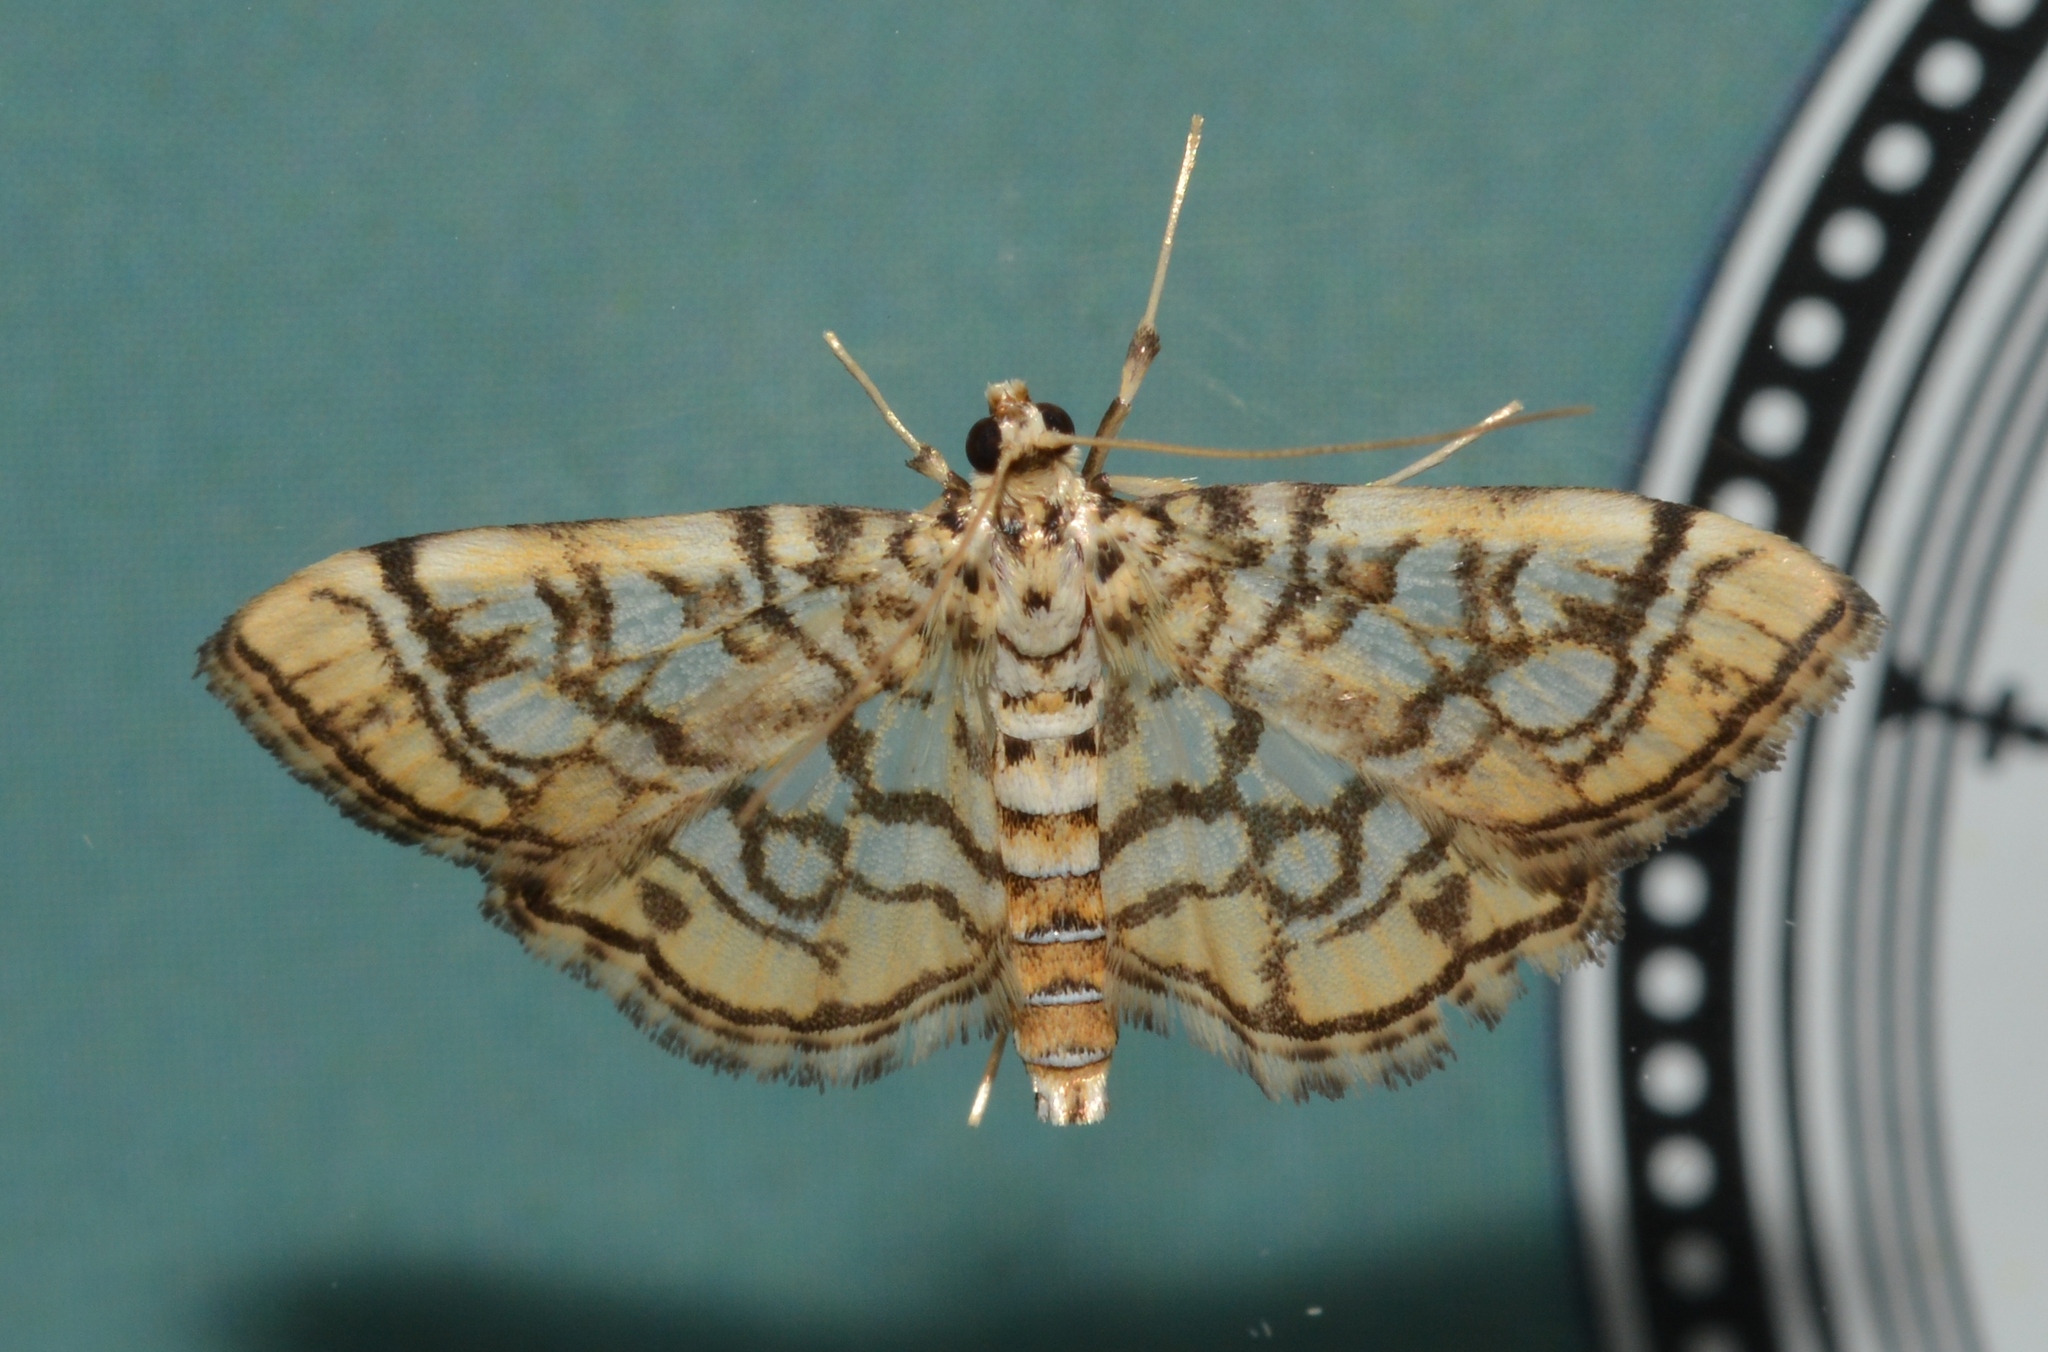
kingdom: Animalia
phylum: Arthropoda
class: Insecta
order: Lepidoptera
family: Crambidae
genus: Lygropia
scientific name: Lygropia rivulalis
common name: Bog lygropia moth
